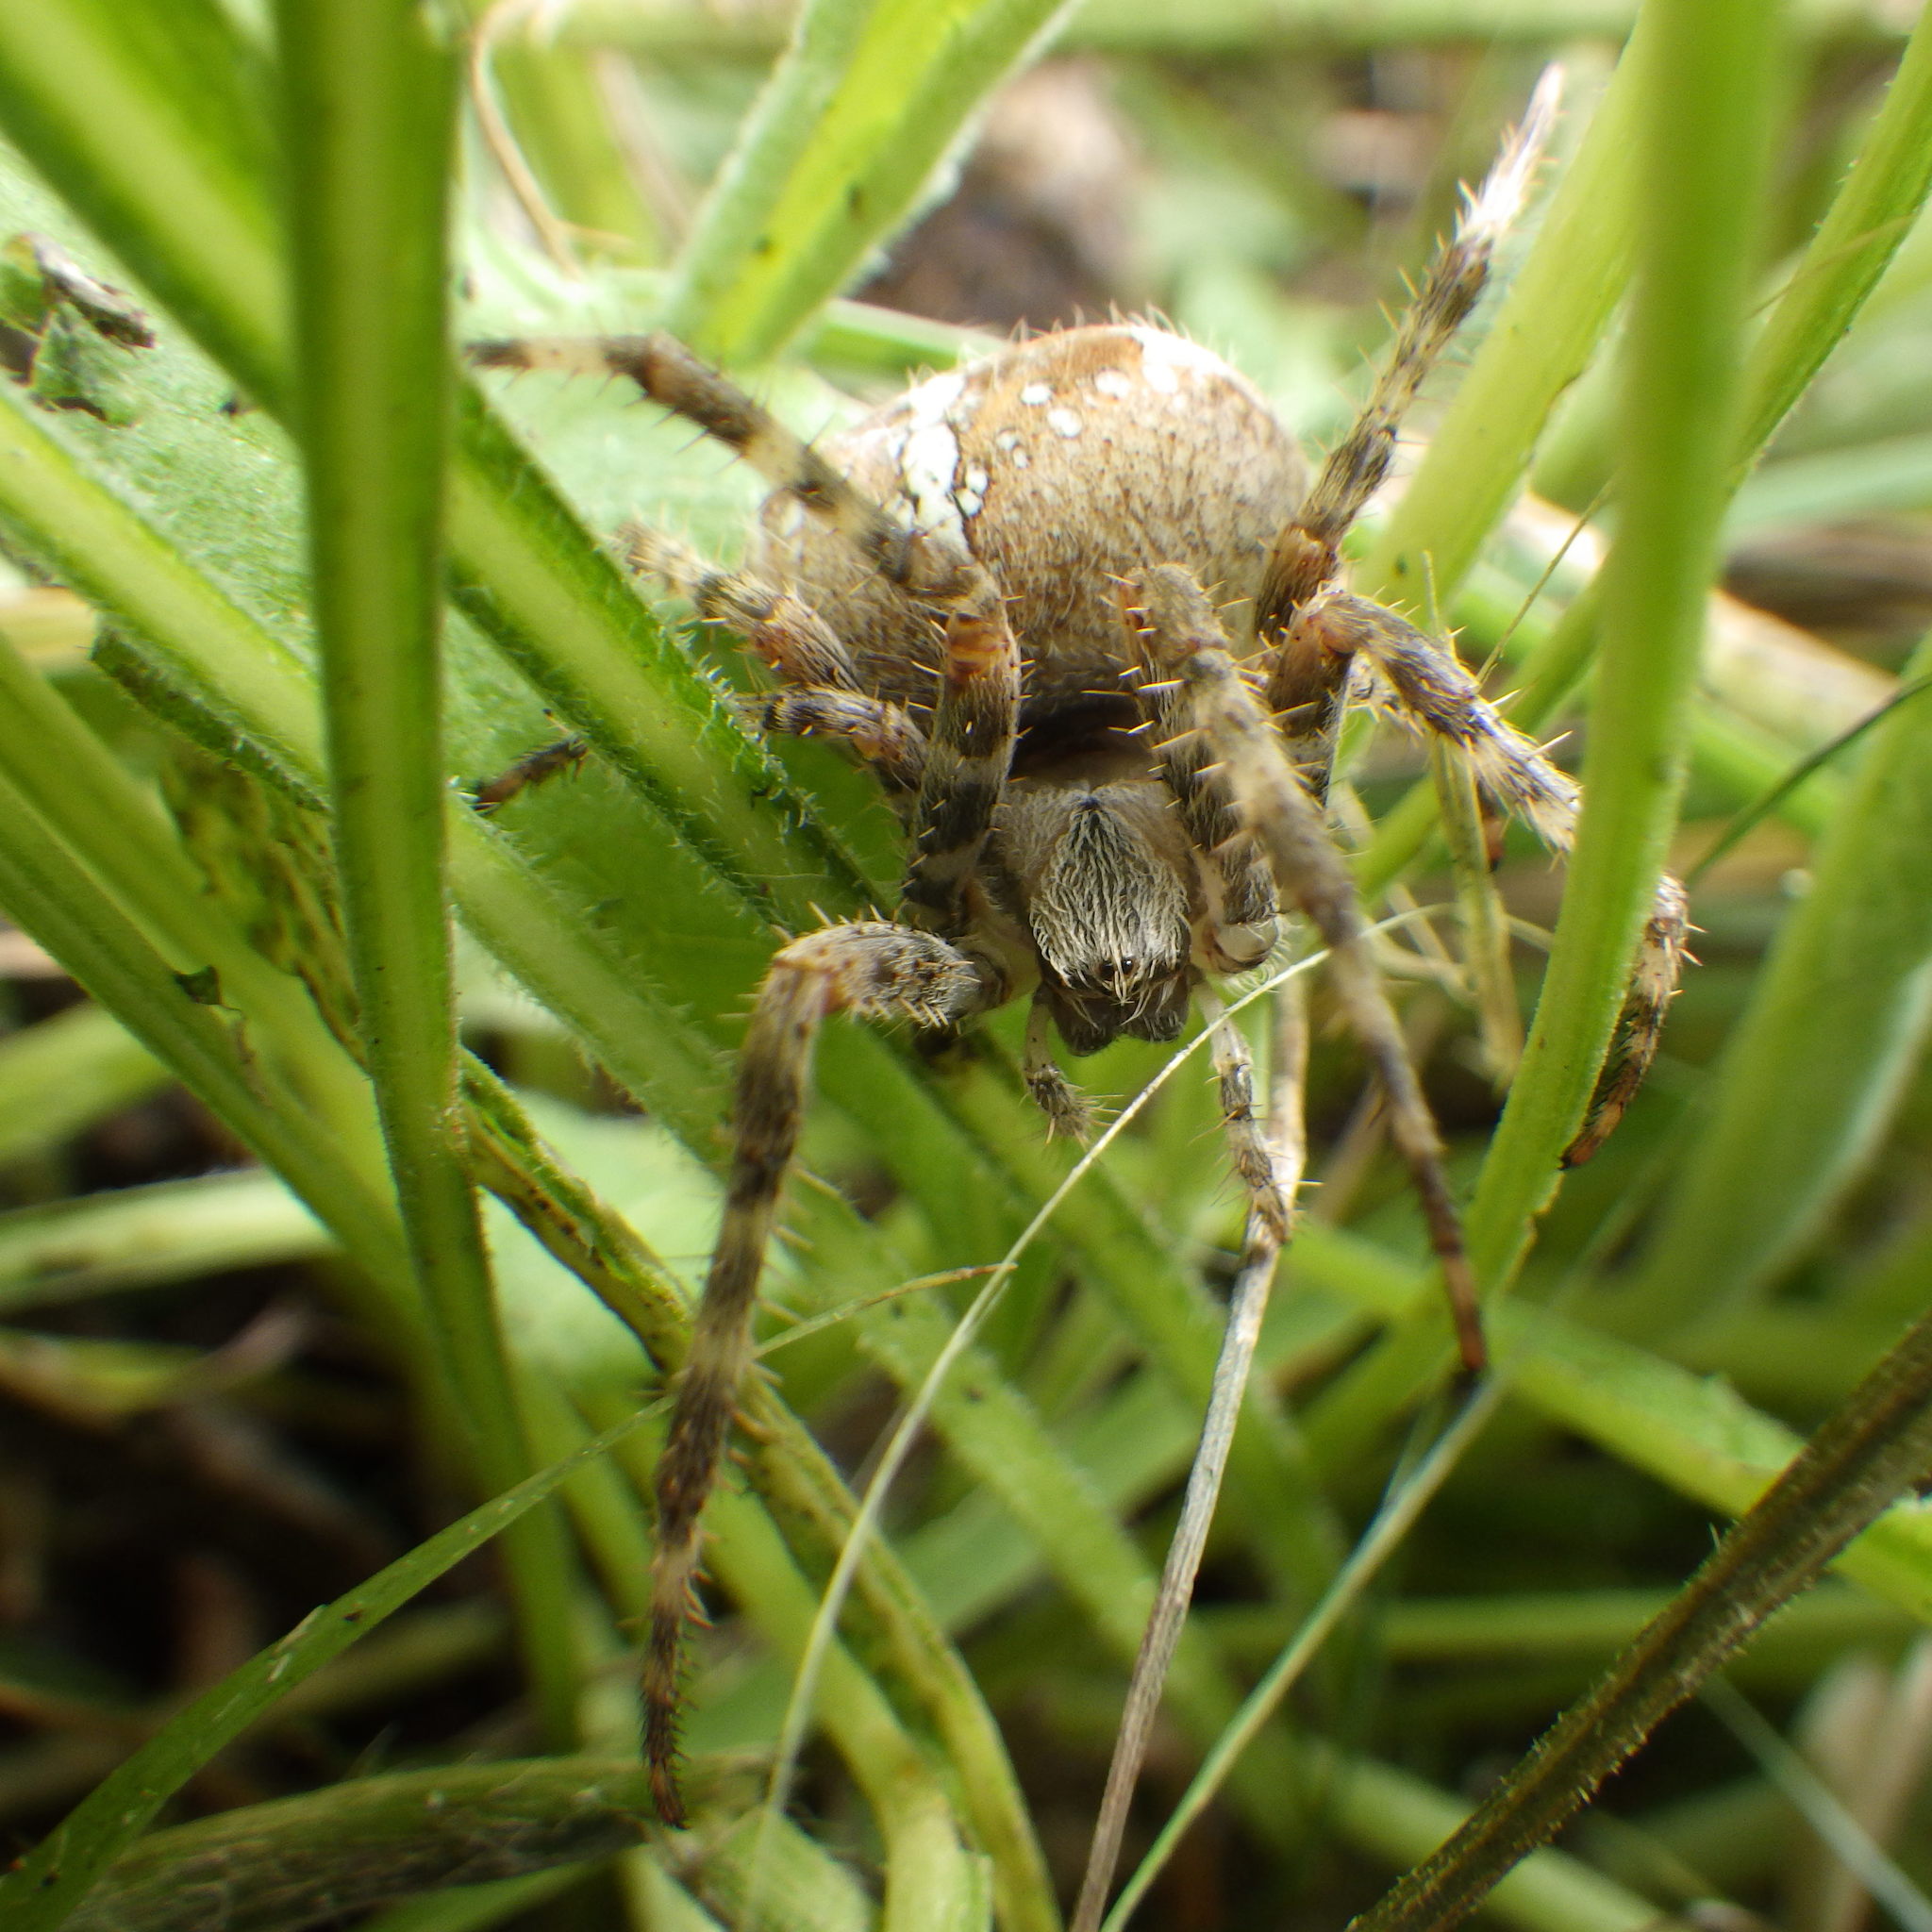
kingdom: Animalia
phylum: Arthropoda
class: Arachnida
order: Araneae
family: Araneidae
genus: Araneus
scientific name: Araneus diadematus
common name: Cross orbweaver
